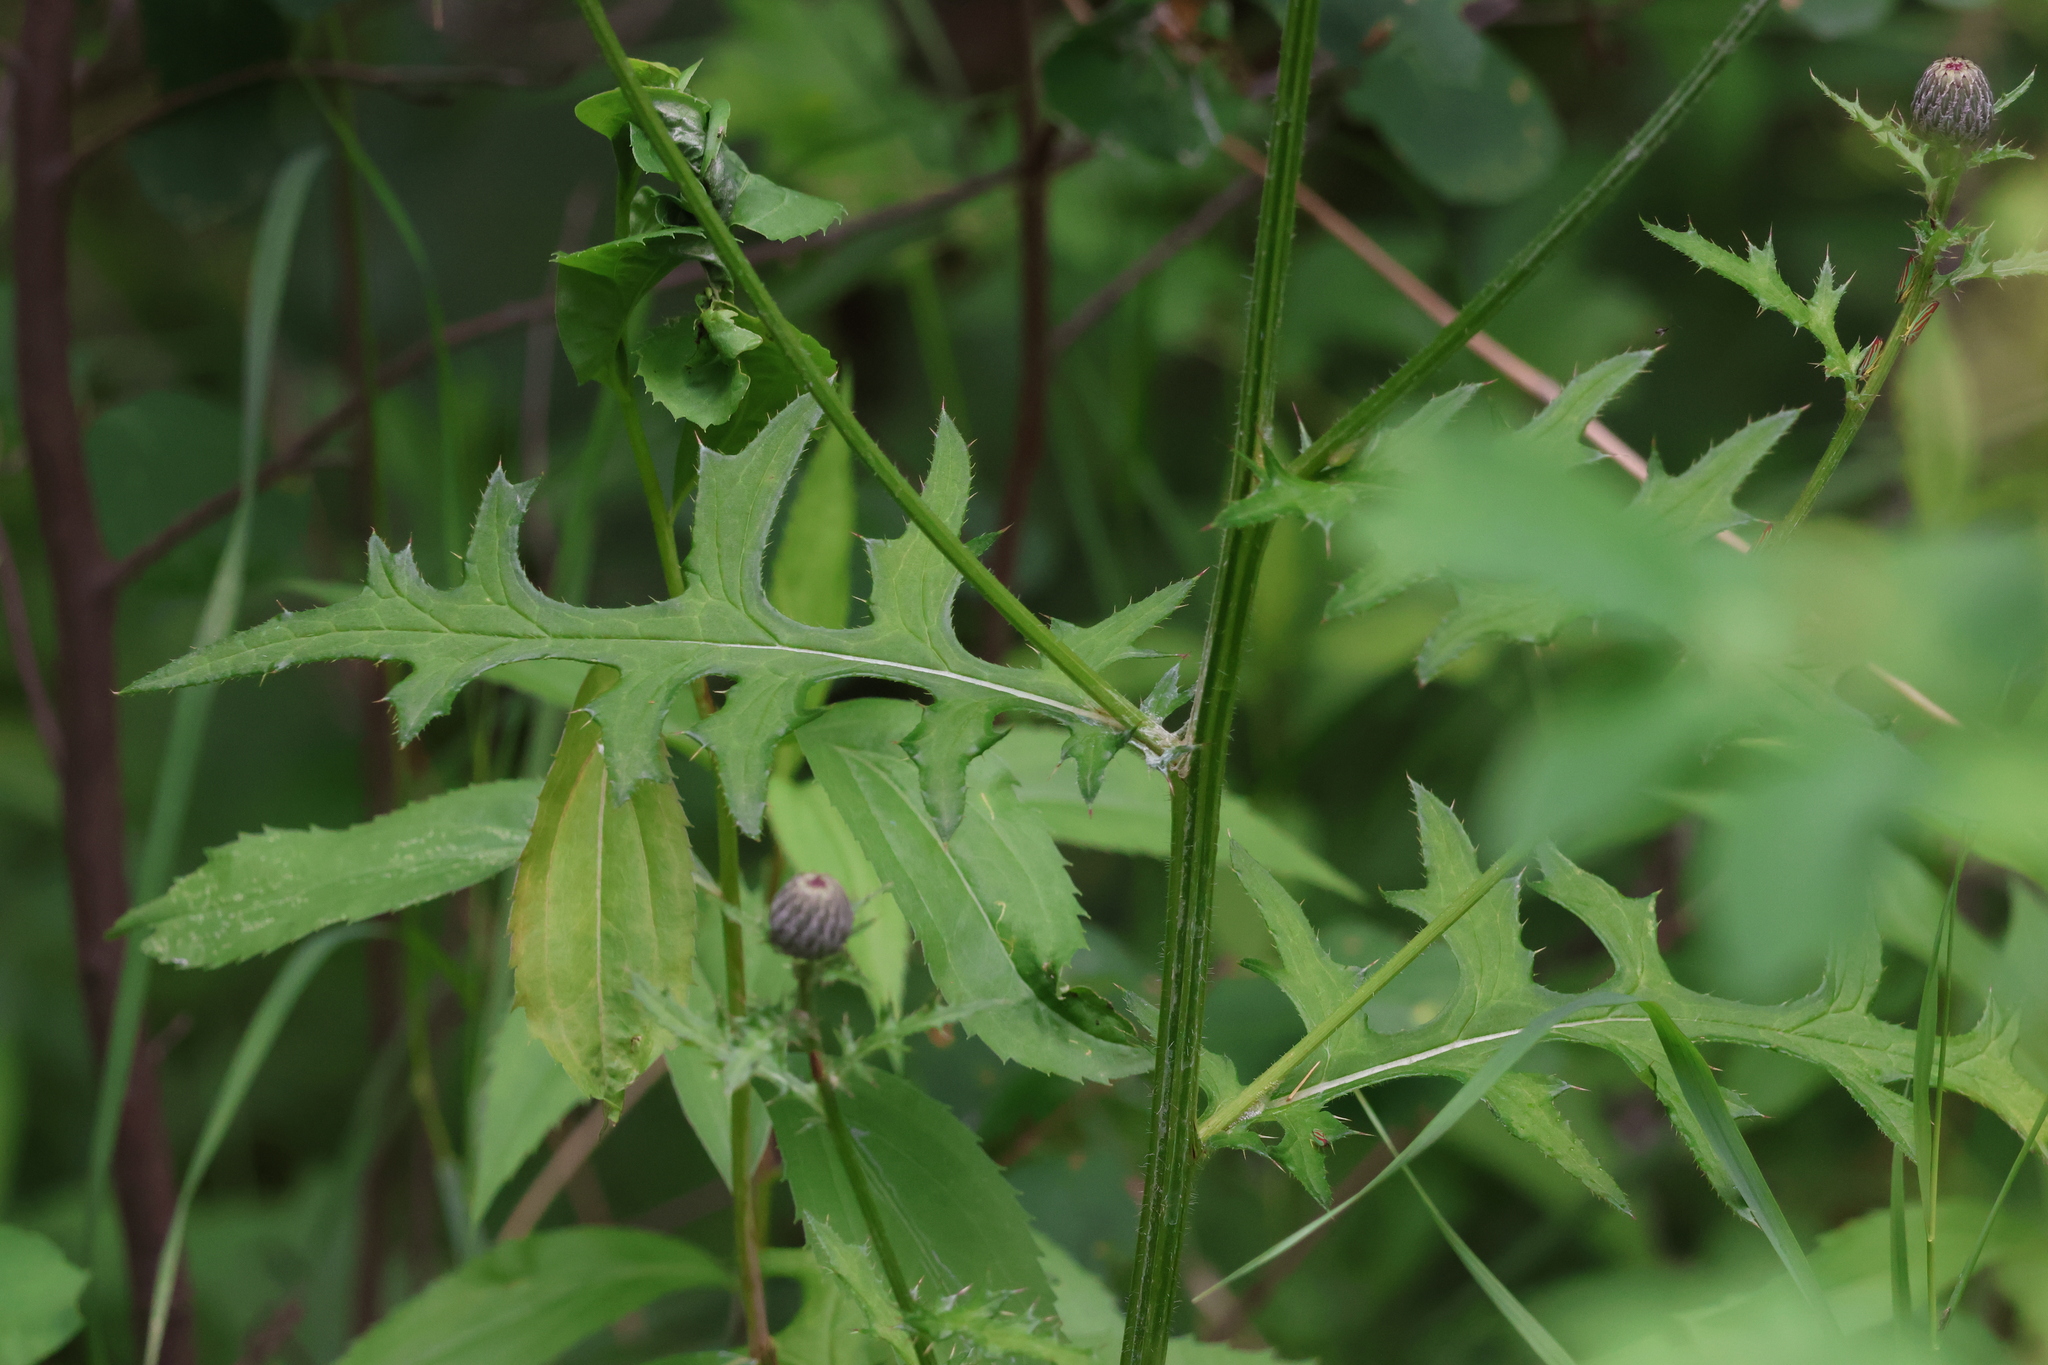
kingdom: Plantae
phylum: Tracheophyta
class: Magnoliopsida
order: Asterales
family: Asteraceae
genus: Cirsium
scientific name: Cirsium muticum
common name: Dunce-nettle
